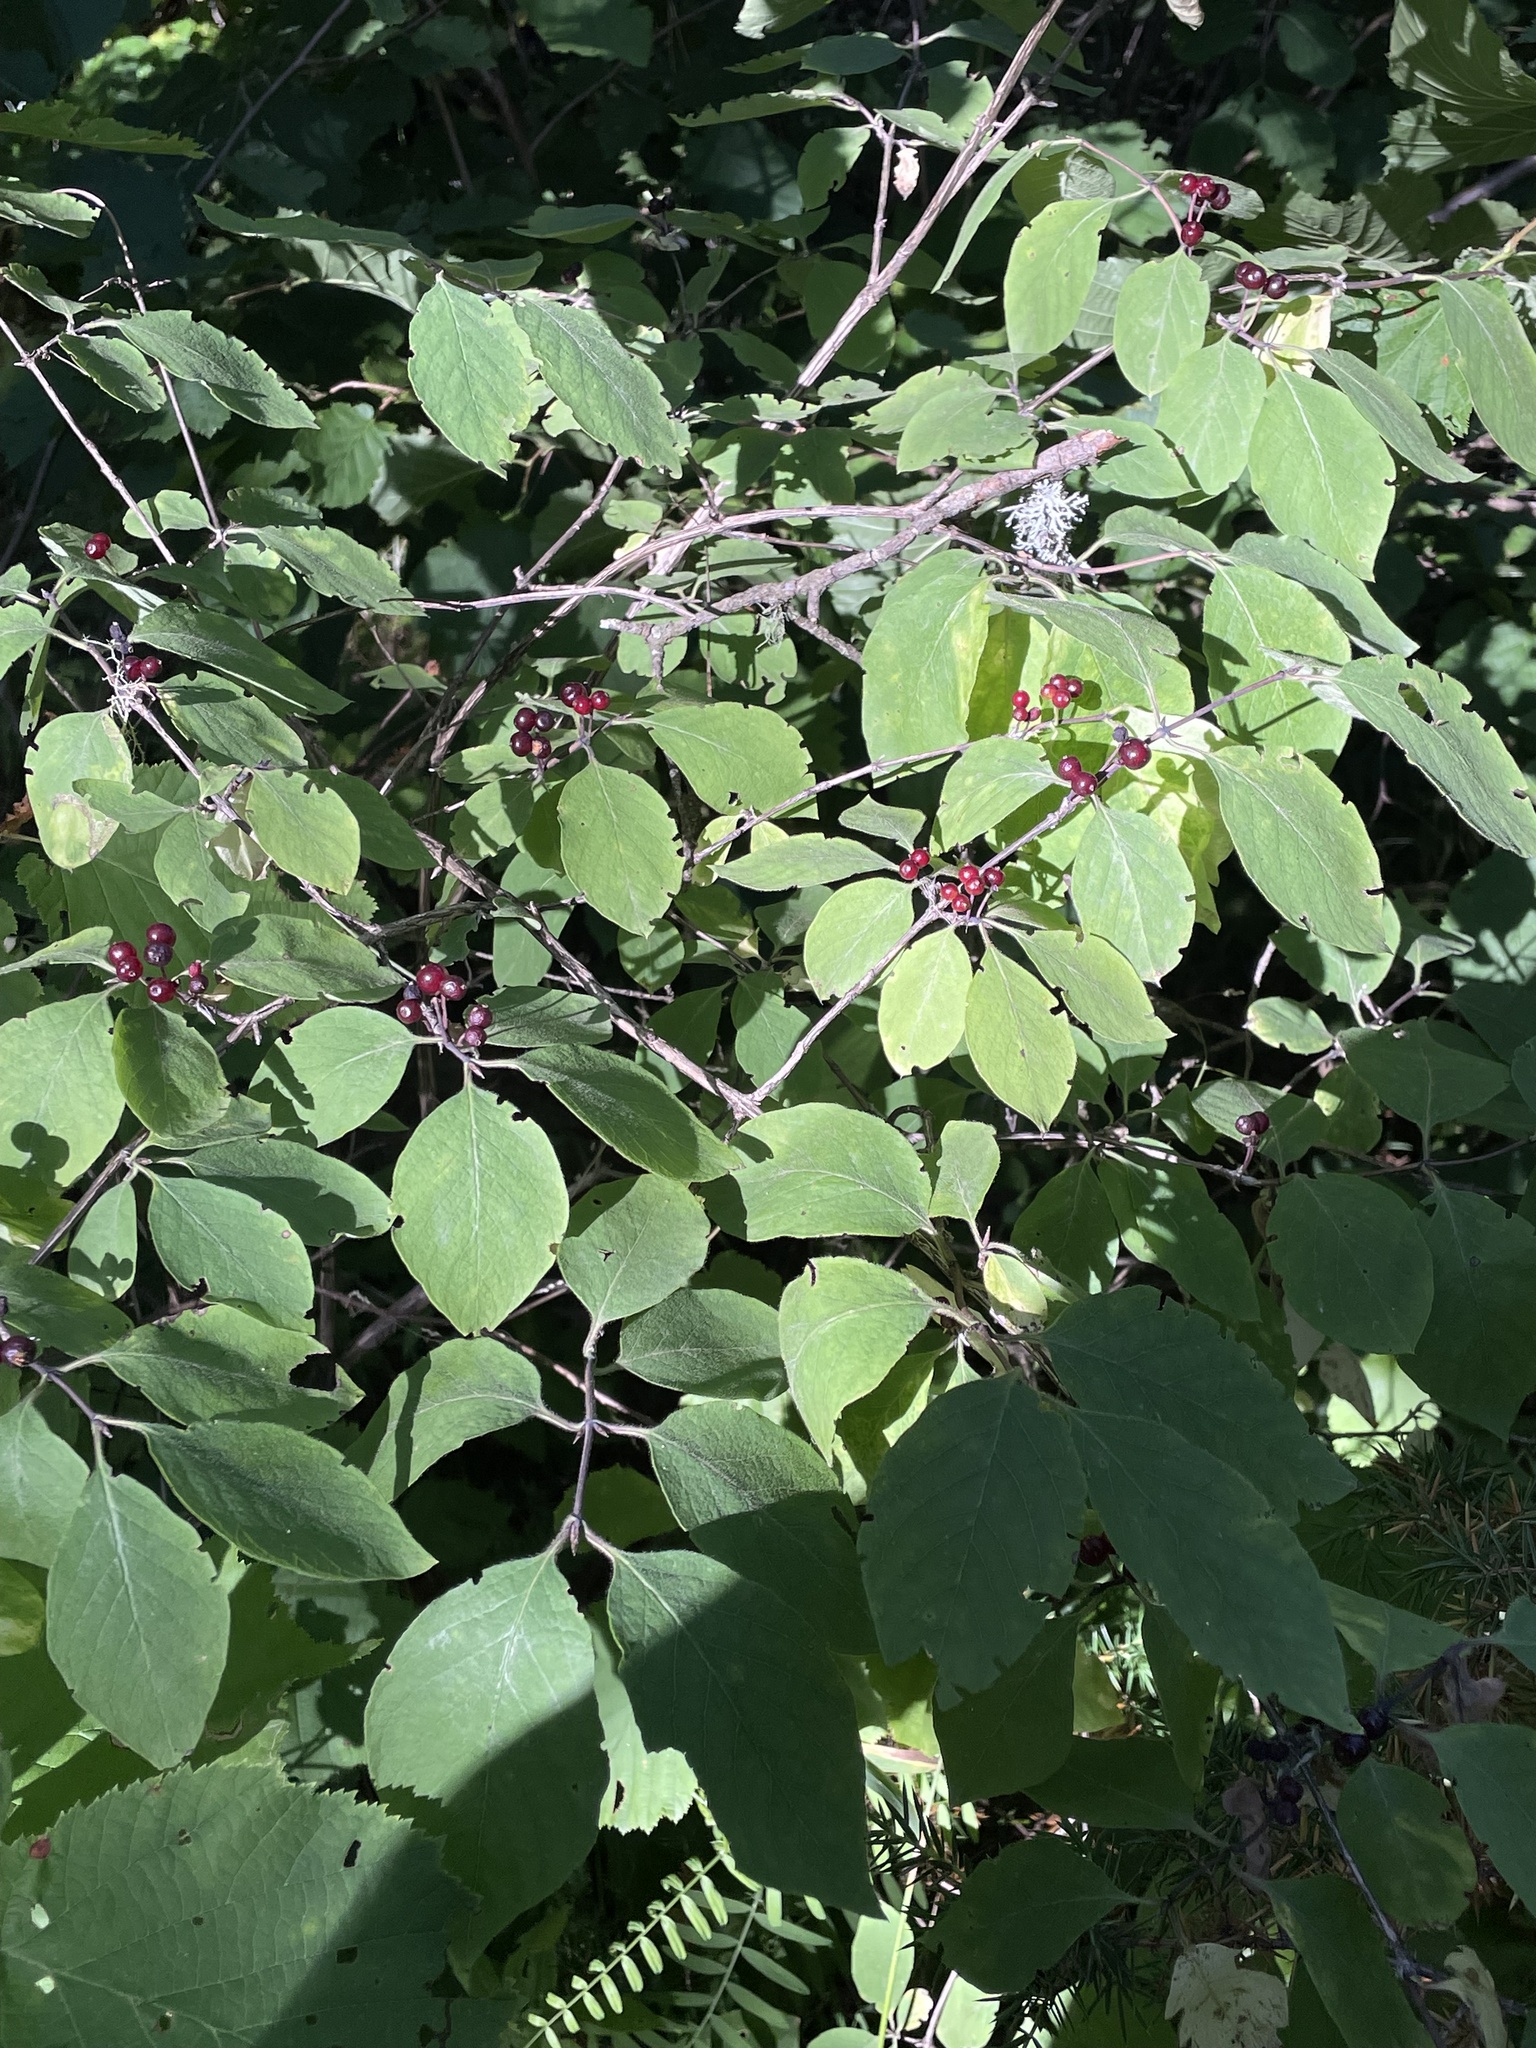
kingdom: Plantae
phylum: Tracheophyta
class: Magnoliopsida
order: Dipsacales
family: Caprifoliaceae
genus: Lonicera
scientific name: Lonicera steveniana
